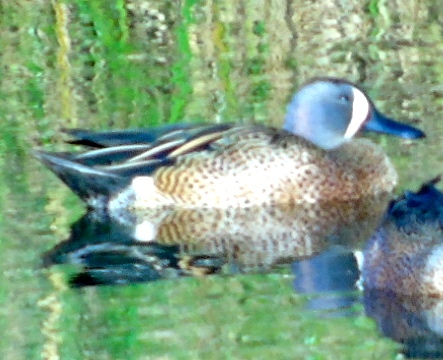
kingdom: Animalia
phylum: Chordata
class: Aves
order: Anseriformes
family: Anatidae
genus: Spatula
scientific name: Spatula discors
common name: Blue-winged teal
